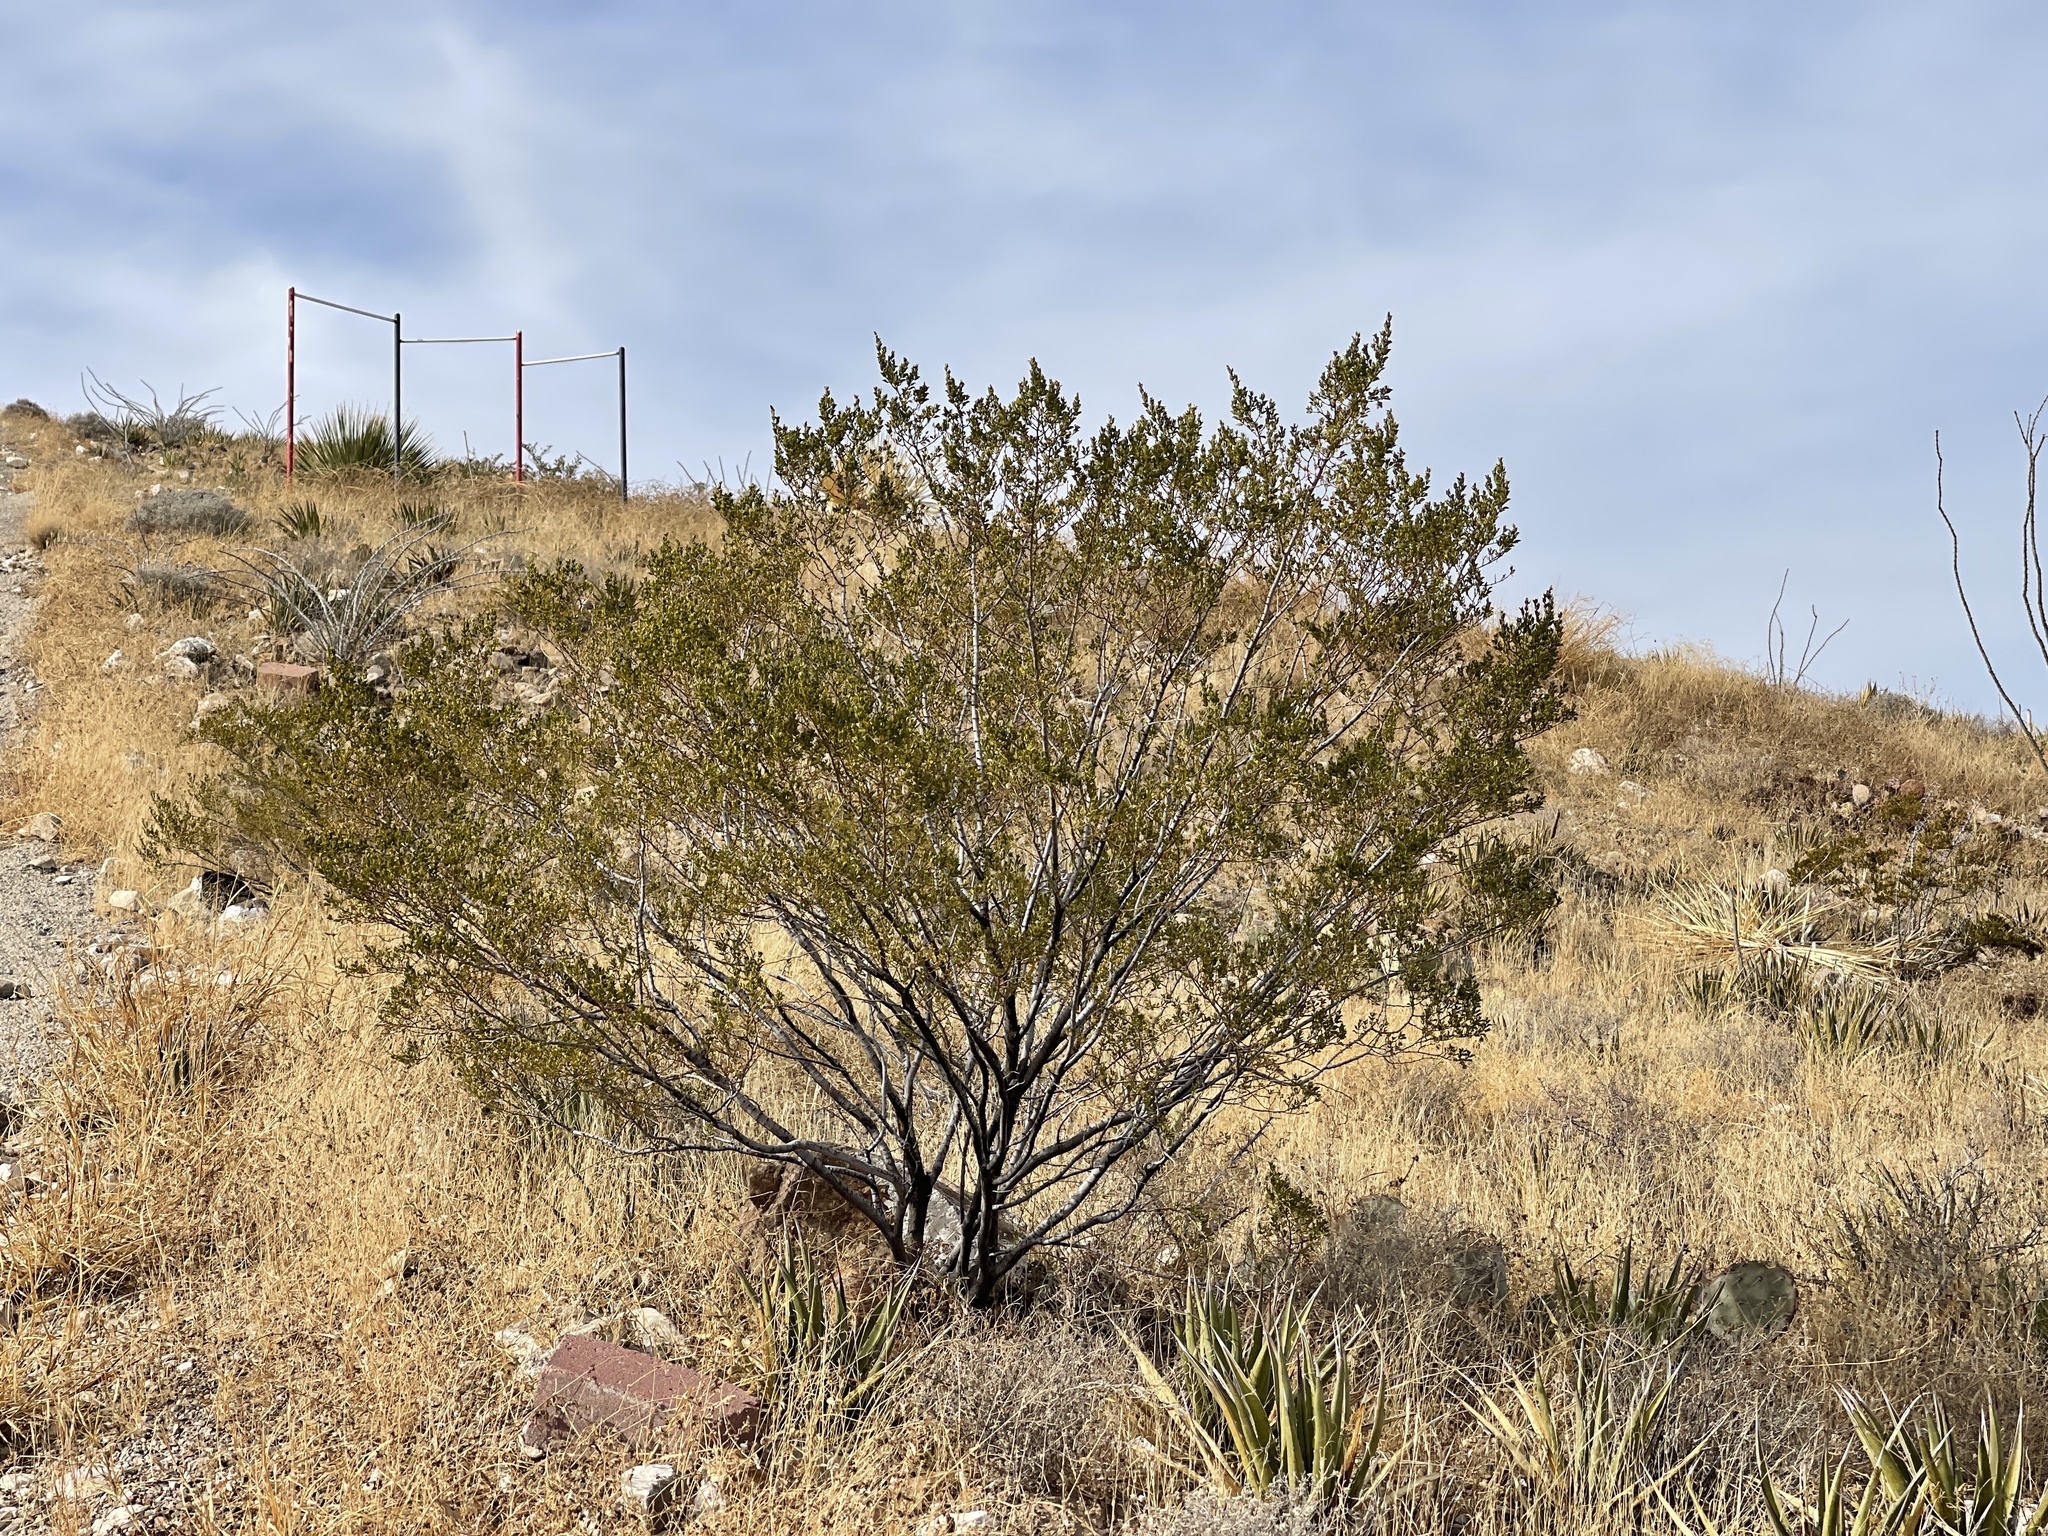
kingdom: Plantae
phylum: Tracheophyta
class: Magnoliopsida
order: Zygophyllales
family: Zygophyllaceae
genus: Larrea
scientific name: Larrea tridentata
